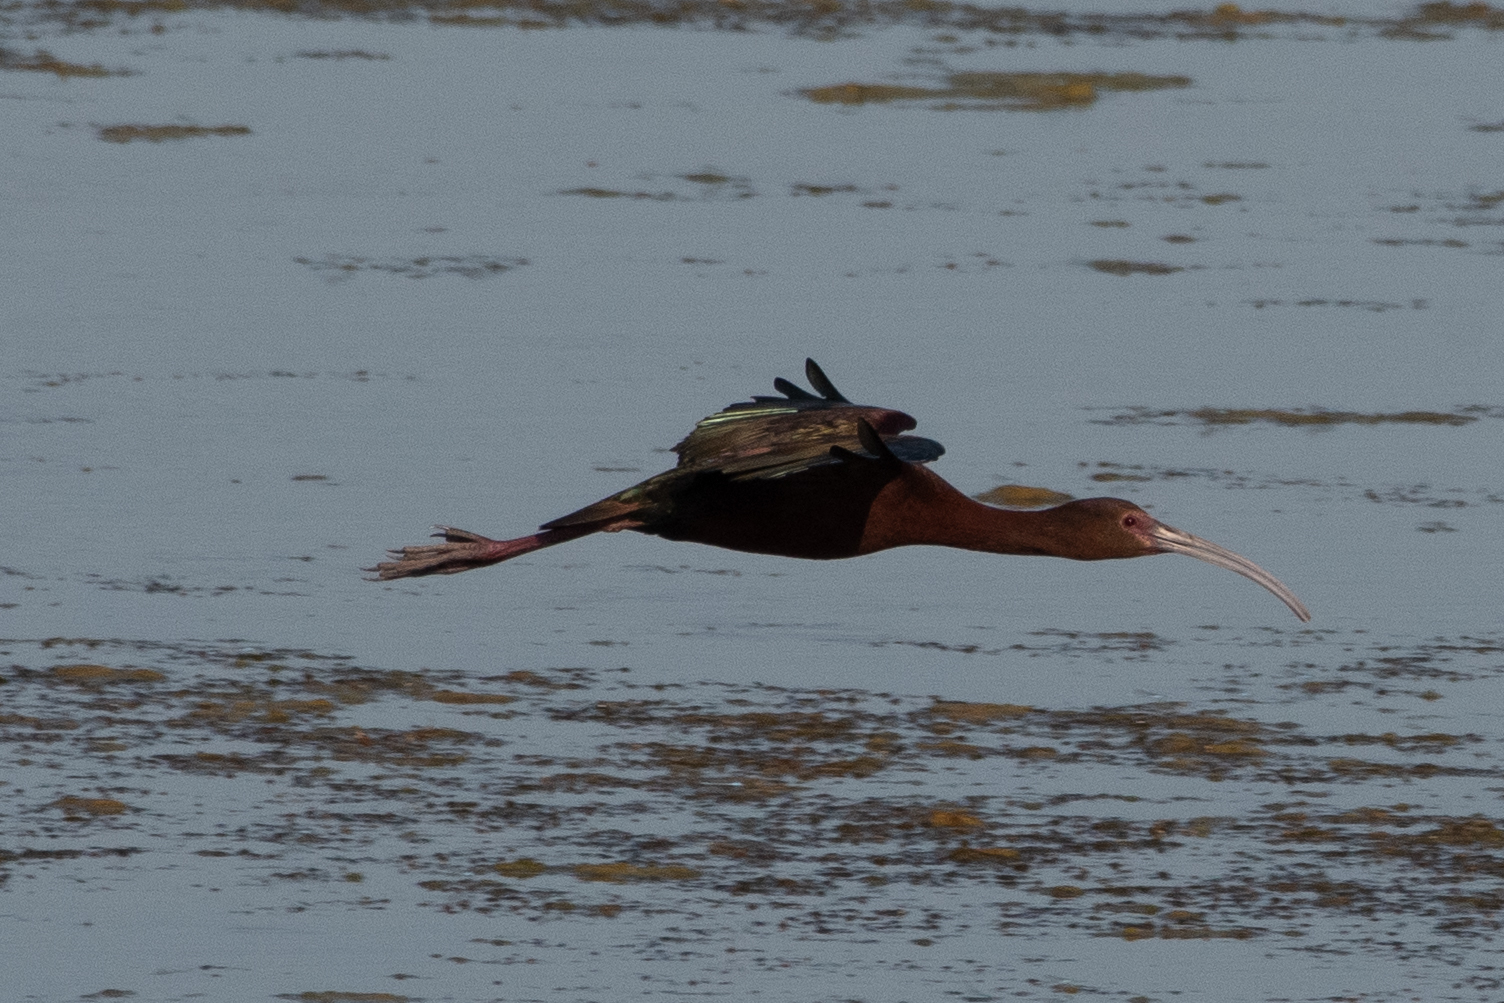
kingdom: Animalia
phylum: Chordata
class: Aves
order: Pelecaniformes
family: Threskiornithidae
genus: Plegadis
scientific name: Plegadis chihi
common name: White-faced ibis
